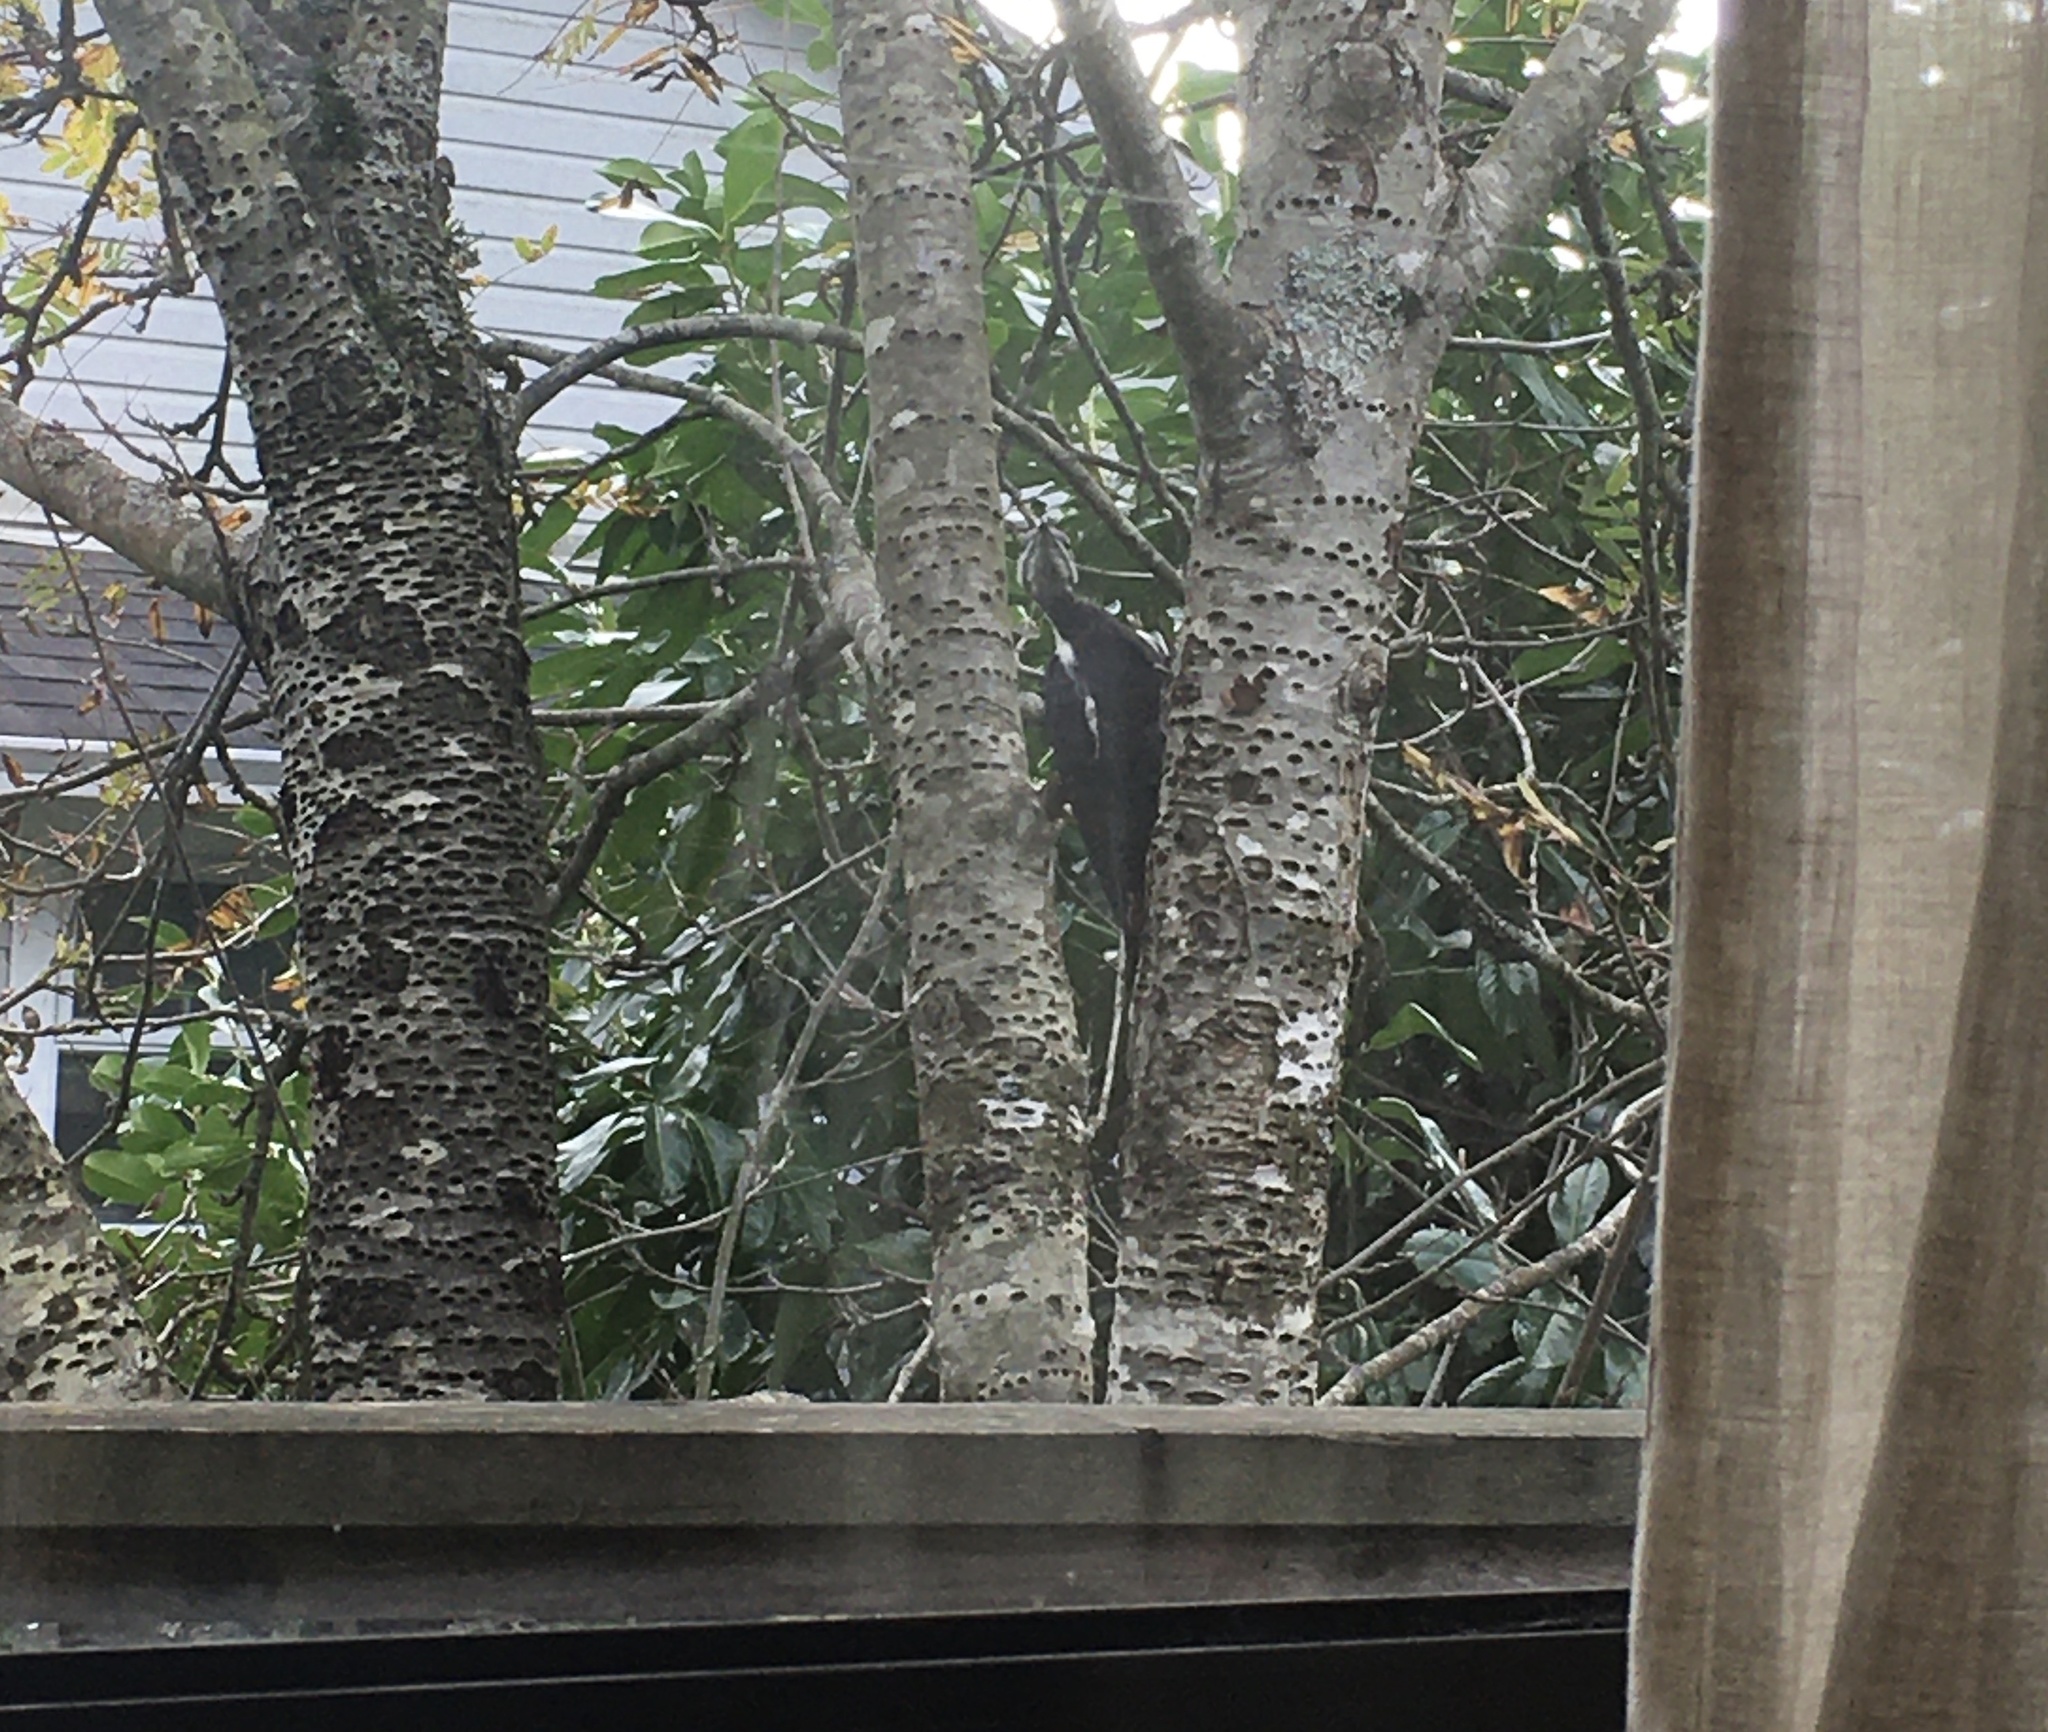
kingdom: Animalia
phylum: Chordata
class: Aves
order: Piciformes
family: Picidae
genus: Dryocopus
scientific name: Dryocopus pileatus
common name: Pileated woodpecker
